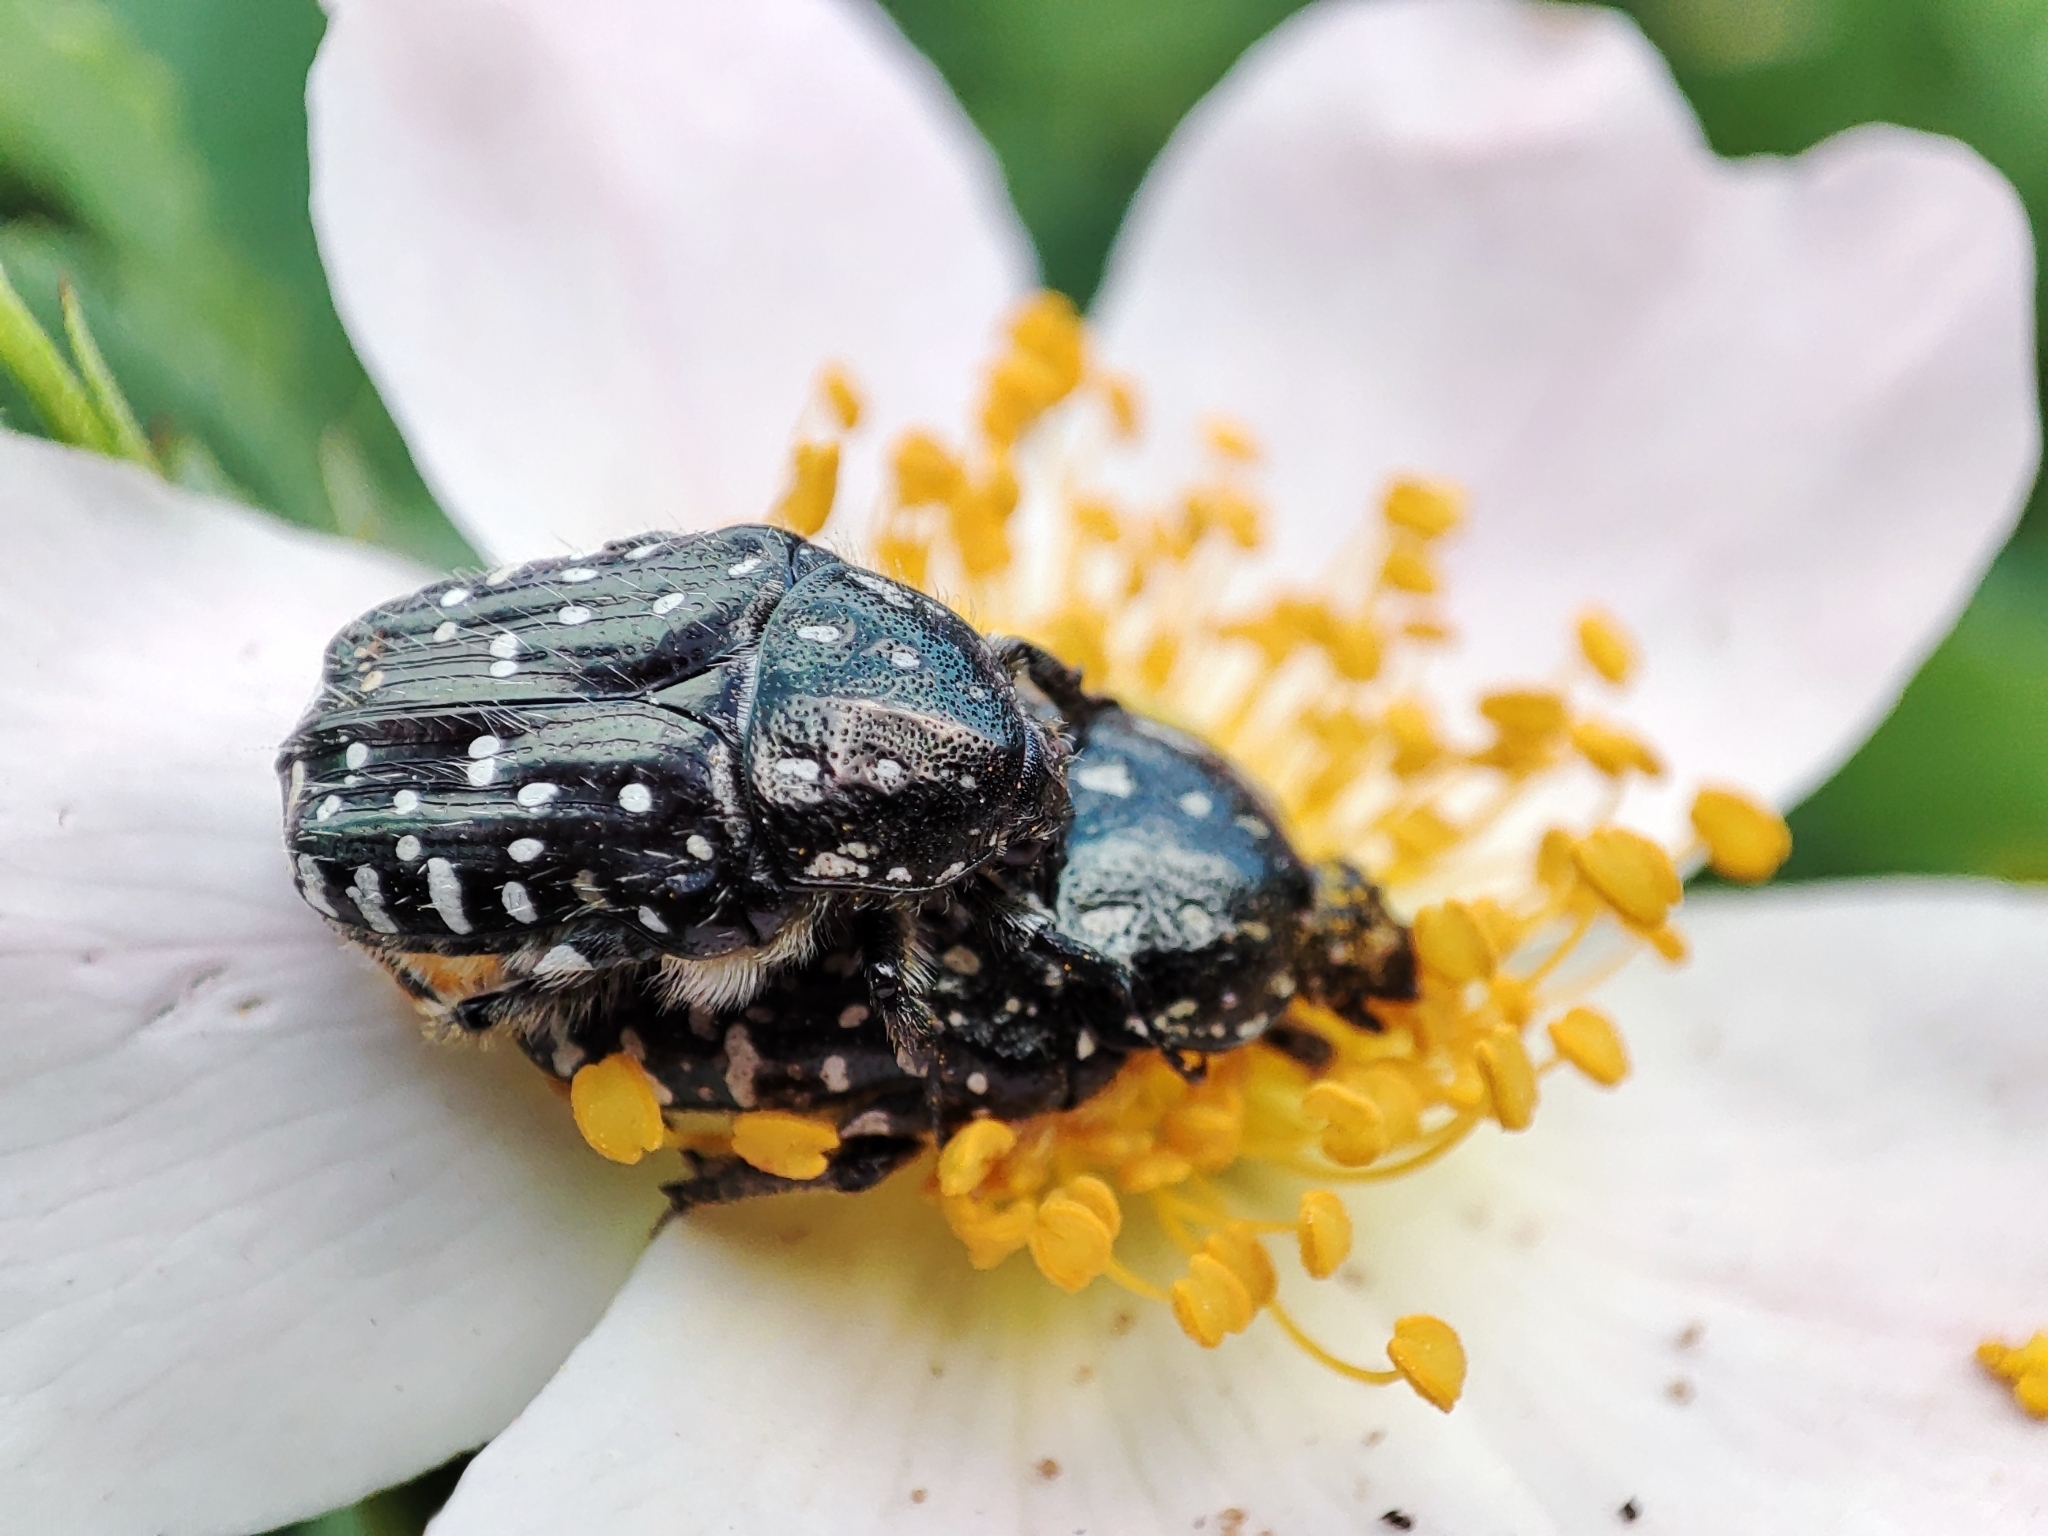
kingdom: Animalia
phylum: Arthropoda
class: Insecta
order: Coleoptera
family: Scarabaeidae
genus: Oxythyrea
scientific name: Oxythyrea funesta
